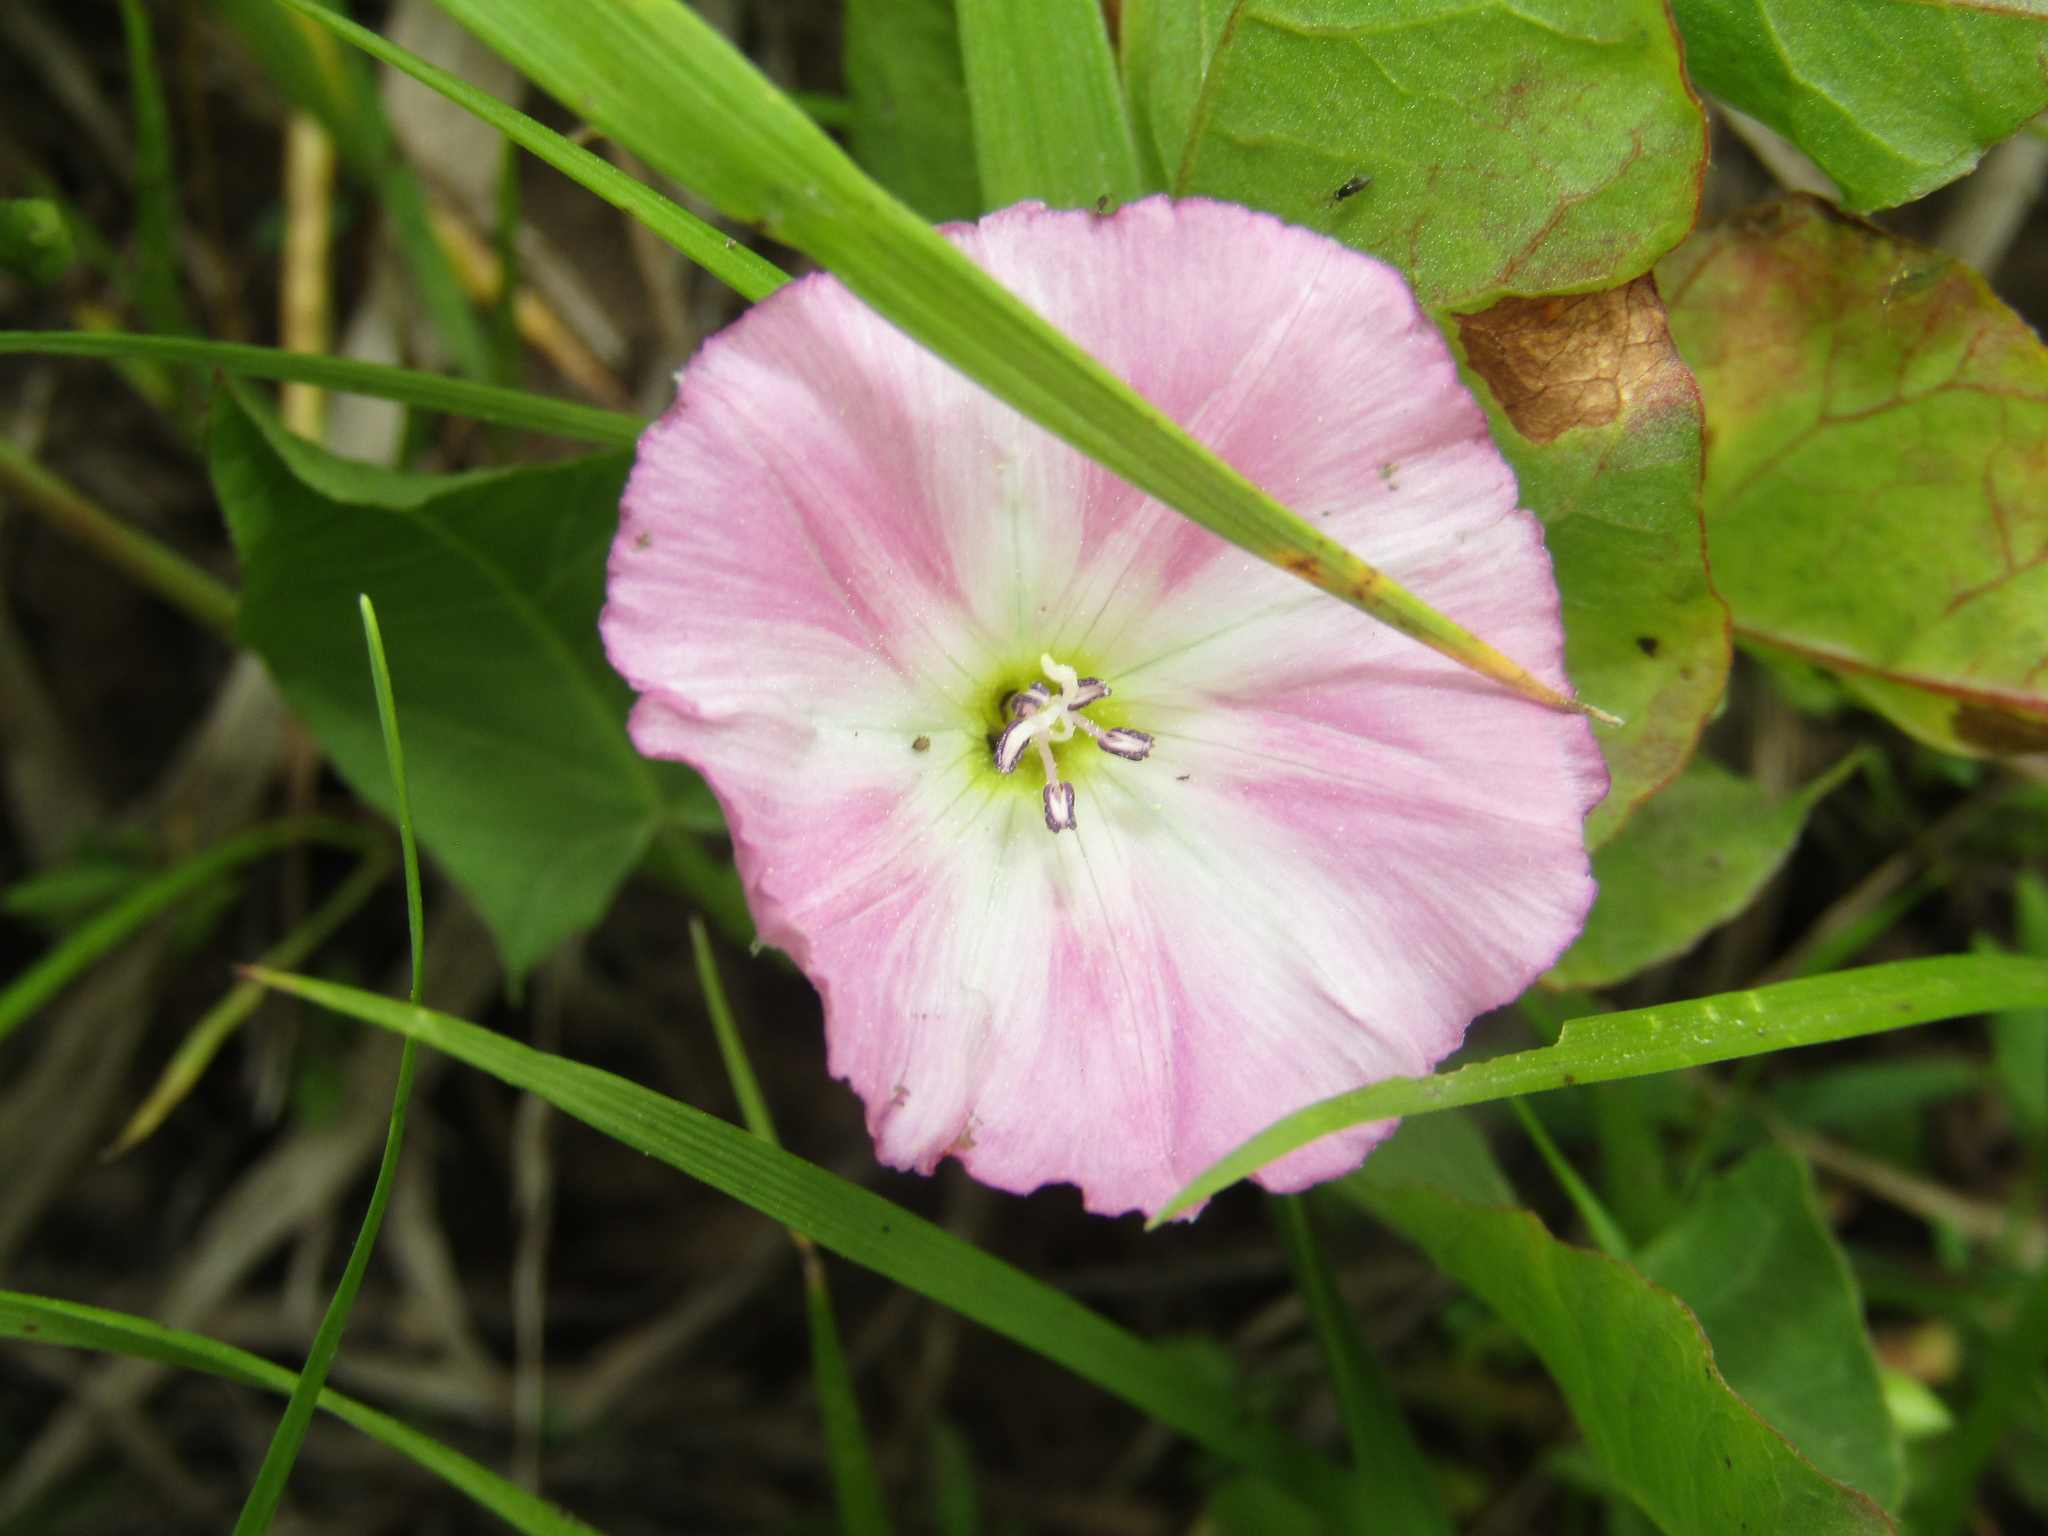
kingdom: Plantae
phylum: Tracheophyta
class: Magnoliopsida
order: Solanales
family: Convolvulaceae
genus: Convolvulus
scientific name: Convolvulus arvensis
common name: Field bindweed
